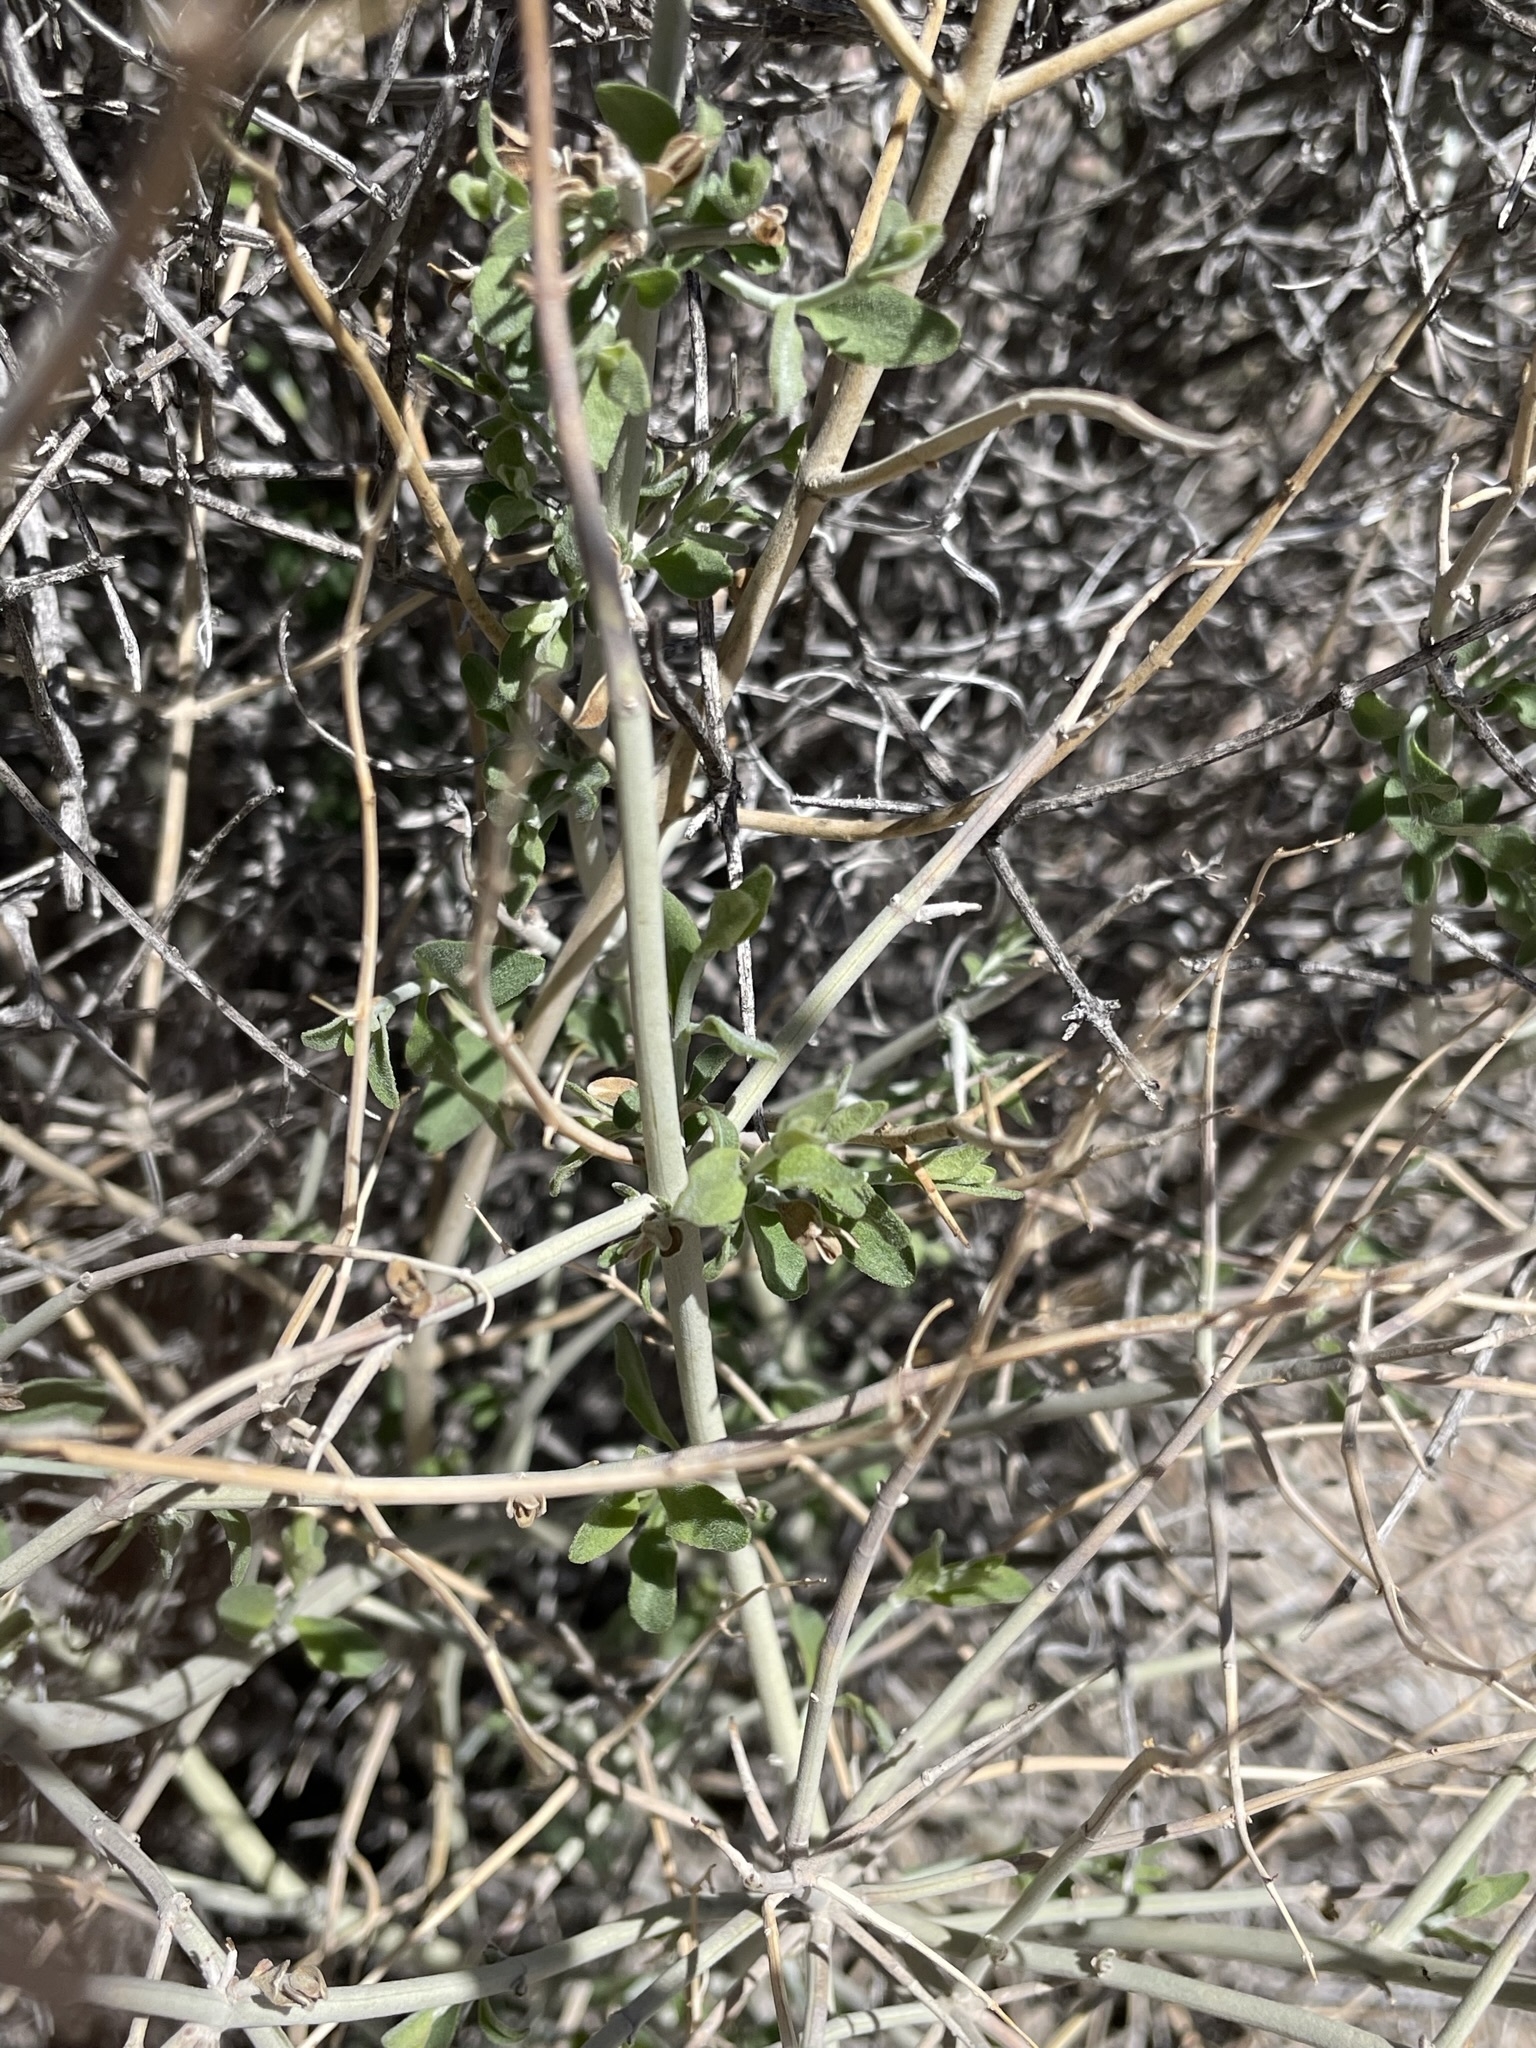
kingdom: Plantae
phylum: Tracheophyta
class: Magnoliopsida
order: Lamiales
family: Lamiaceae
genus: Scutellaria
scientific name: Scutellaria mexicana
